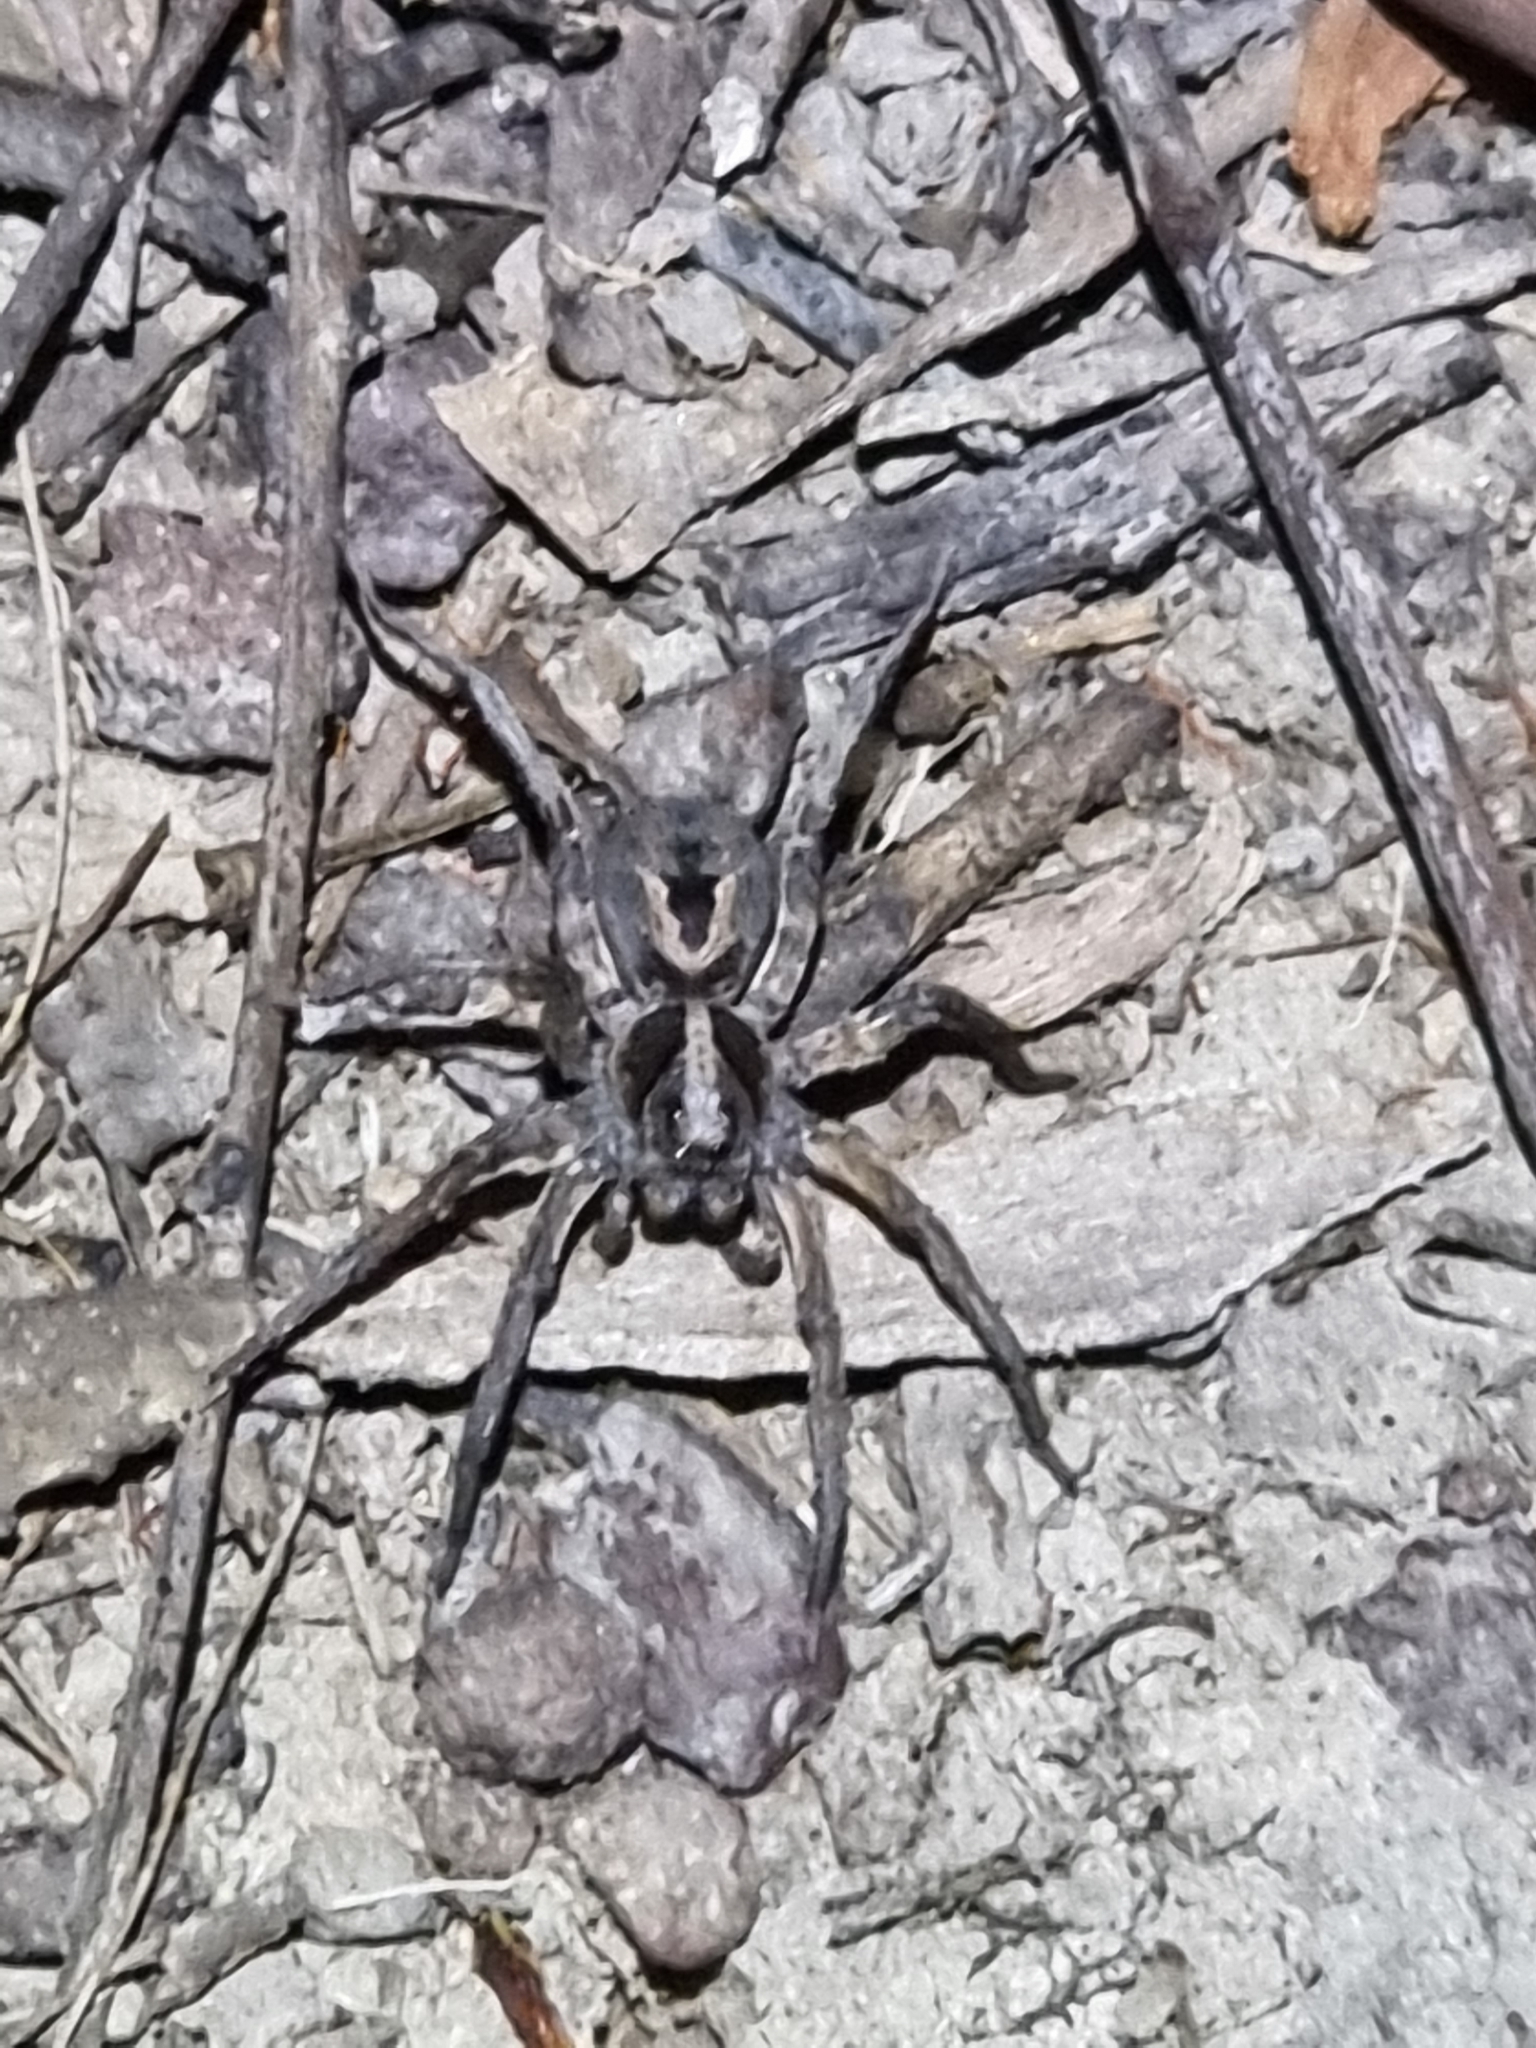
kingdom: Animalia
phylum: Arthropoda
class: Arachnida
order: Araneae
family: Lycosidae
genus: Venator
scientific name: Venator spenceri
